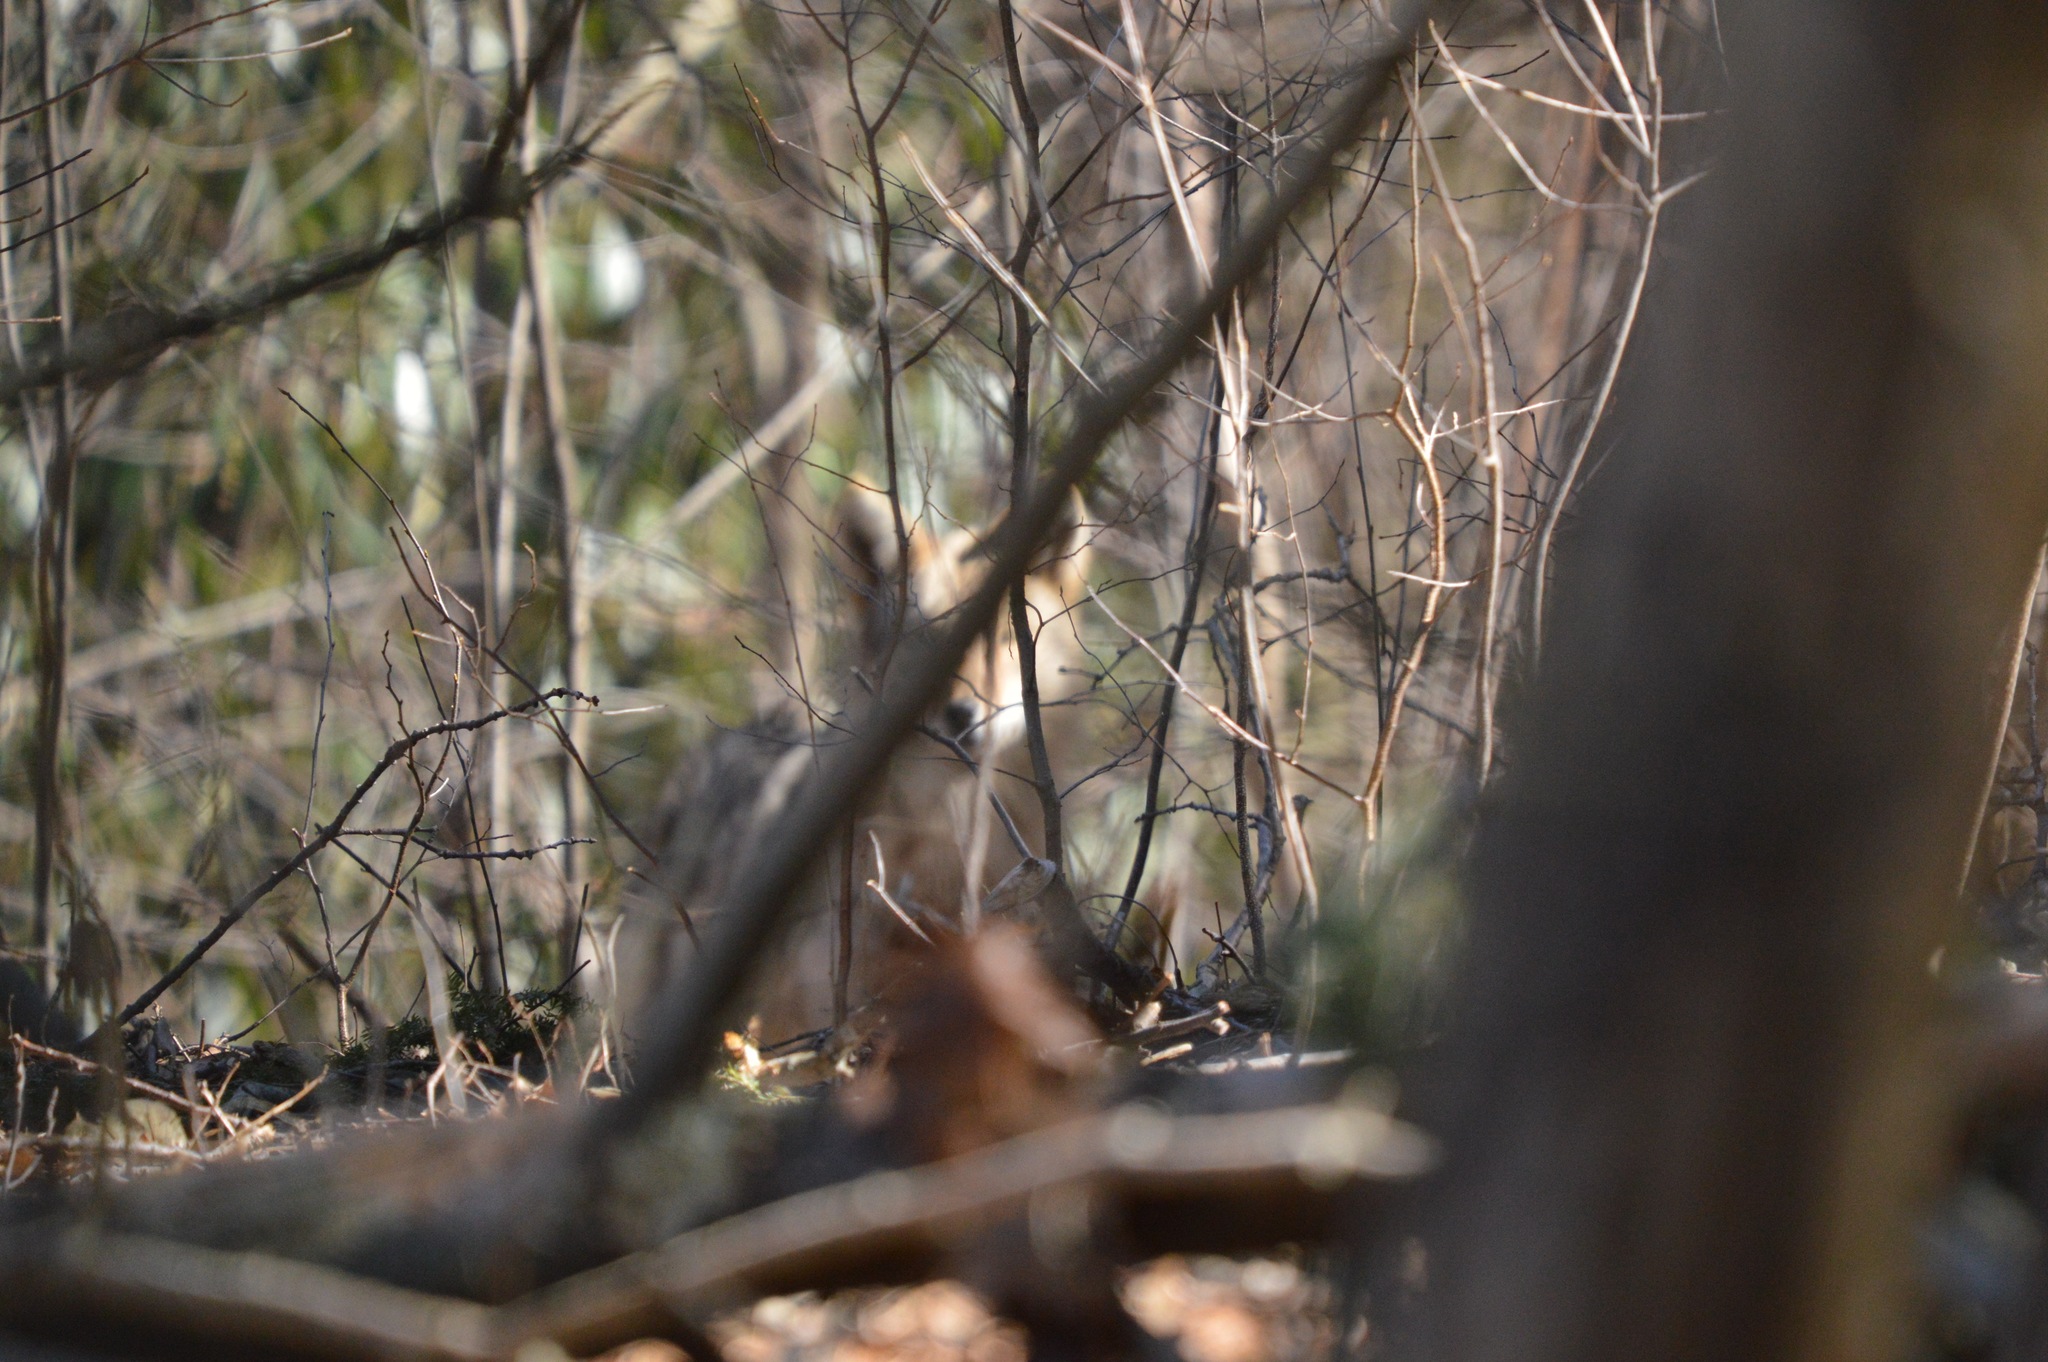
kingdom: Animalia
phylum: Chordata
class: Mammalia
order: Carnivora
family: Canidae
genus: Canis
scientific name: Canis latrans
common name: Coyote
